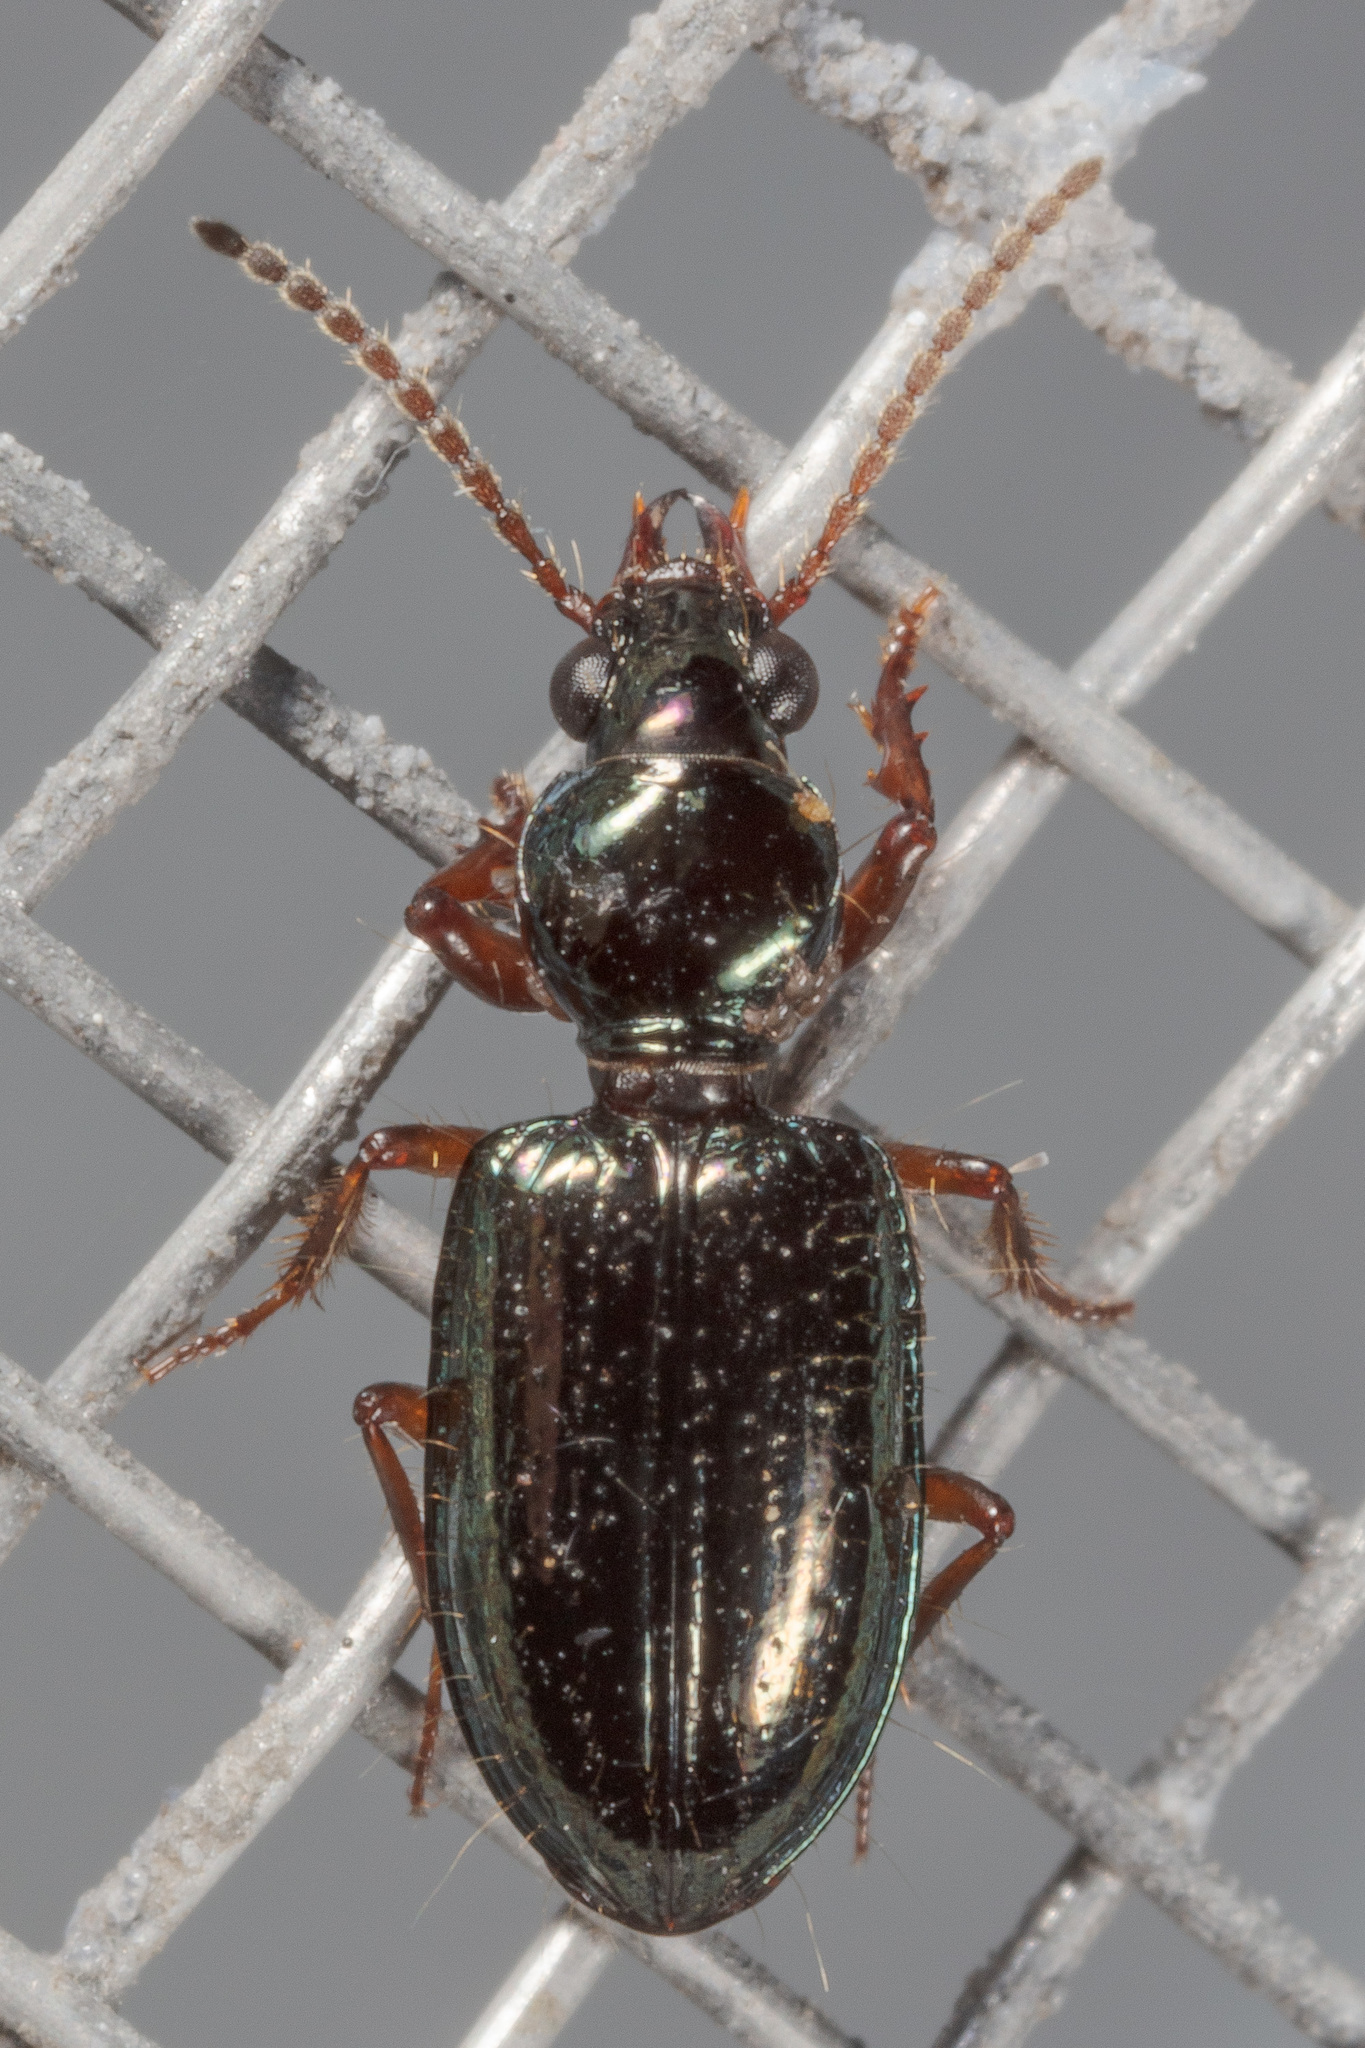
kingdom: Animalia
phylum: Arthropoda
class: Insecta
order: Coleoptera
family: Carabidae
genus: Semiardistomis
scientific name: Semiardistomis viridis
